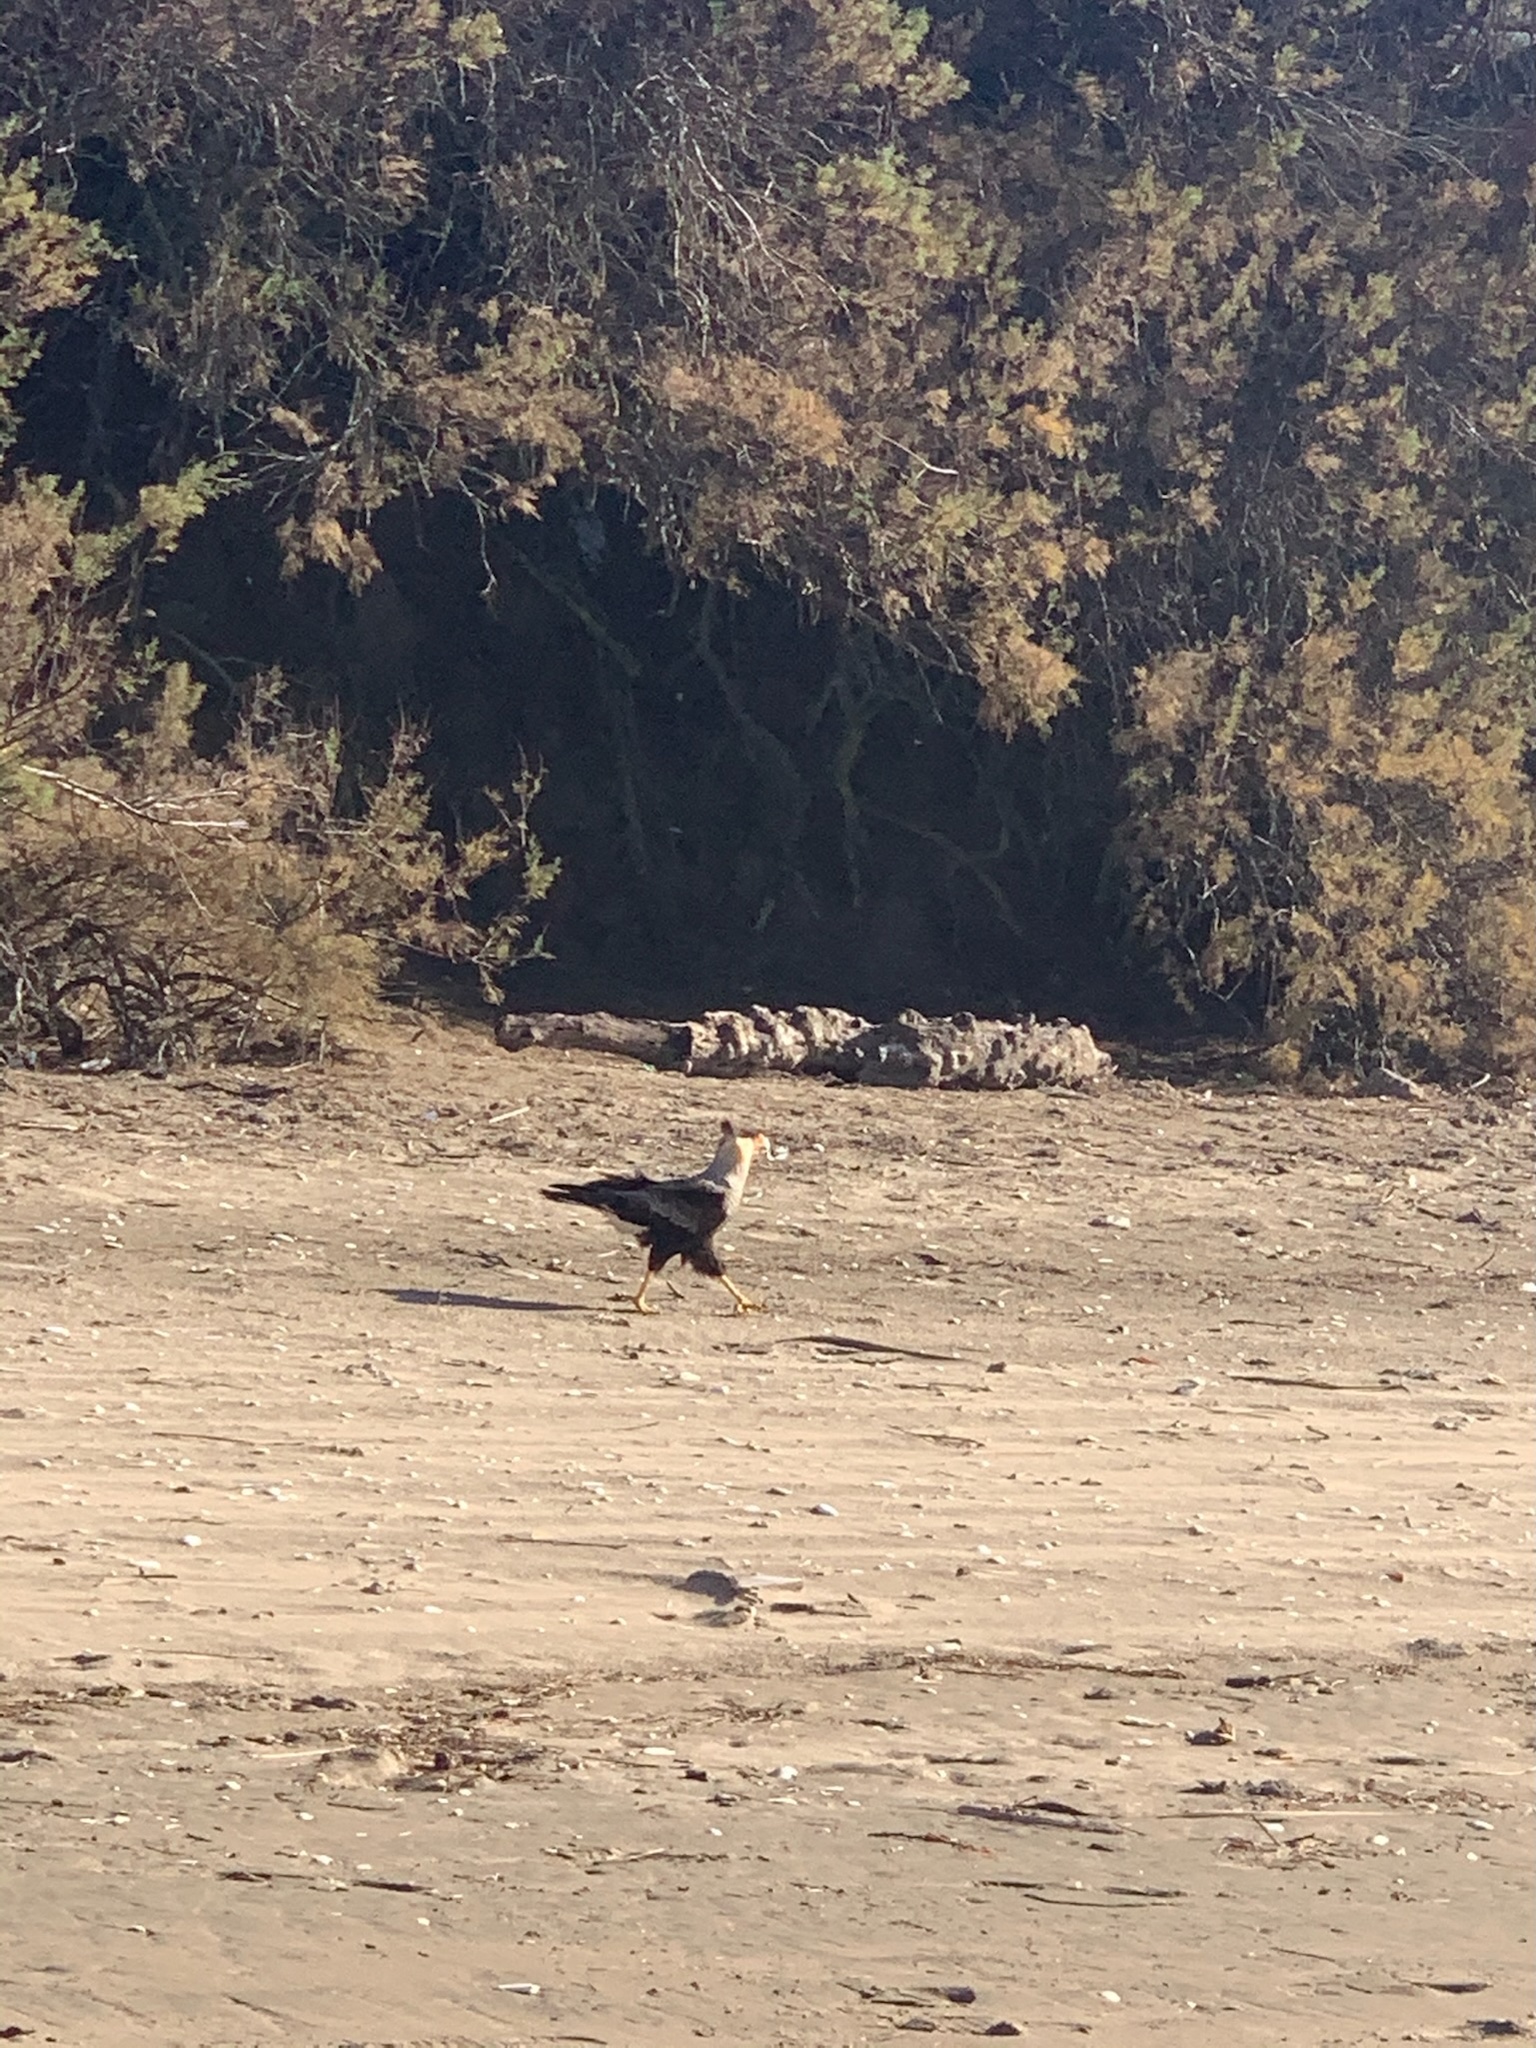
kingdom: Animalia
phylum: Chordata
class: Aves
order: Falconiformes
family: Falconidae
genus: Caracara
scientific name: Caracara plancus
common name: Southern caracara
